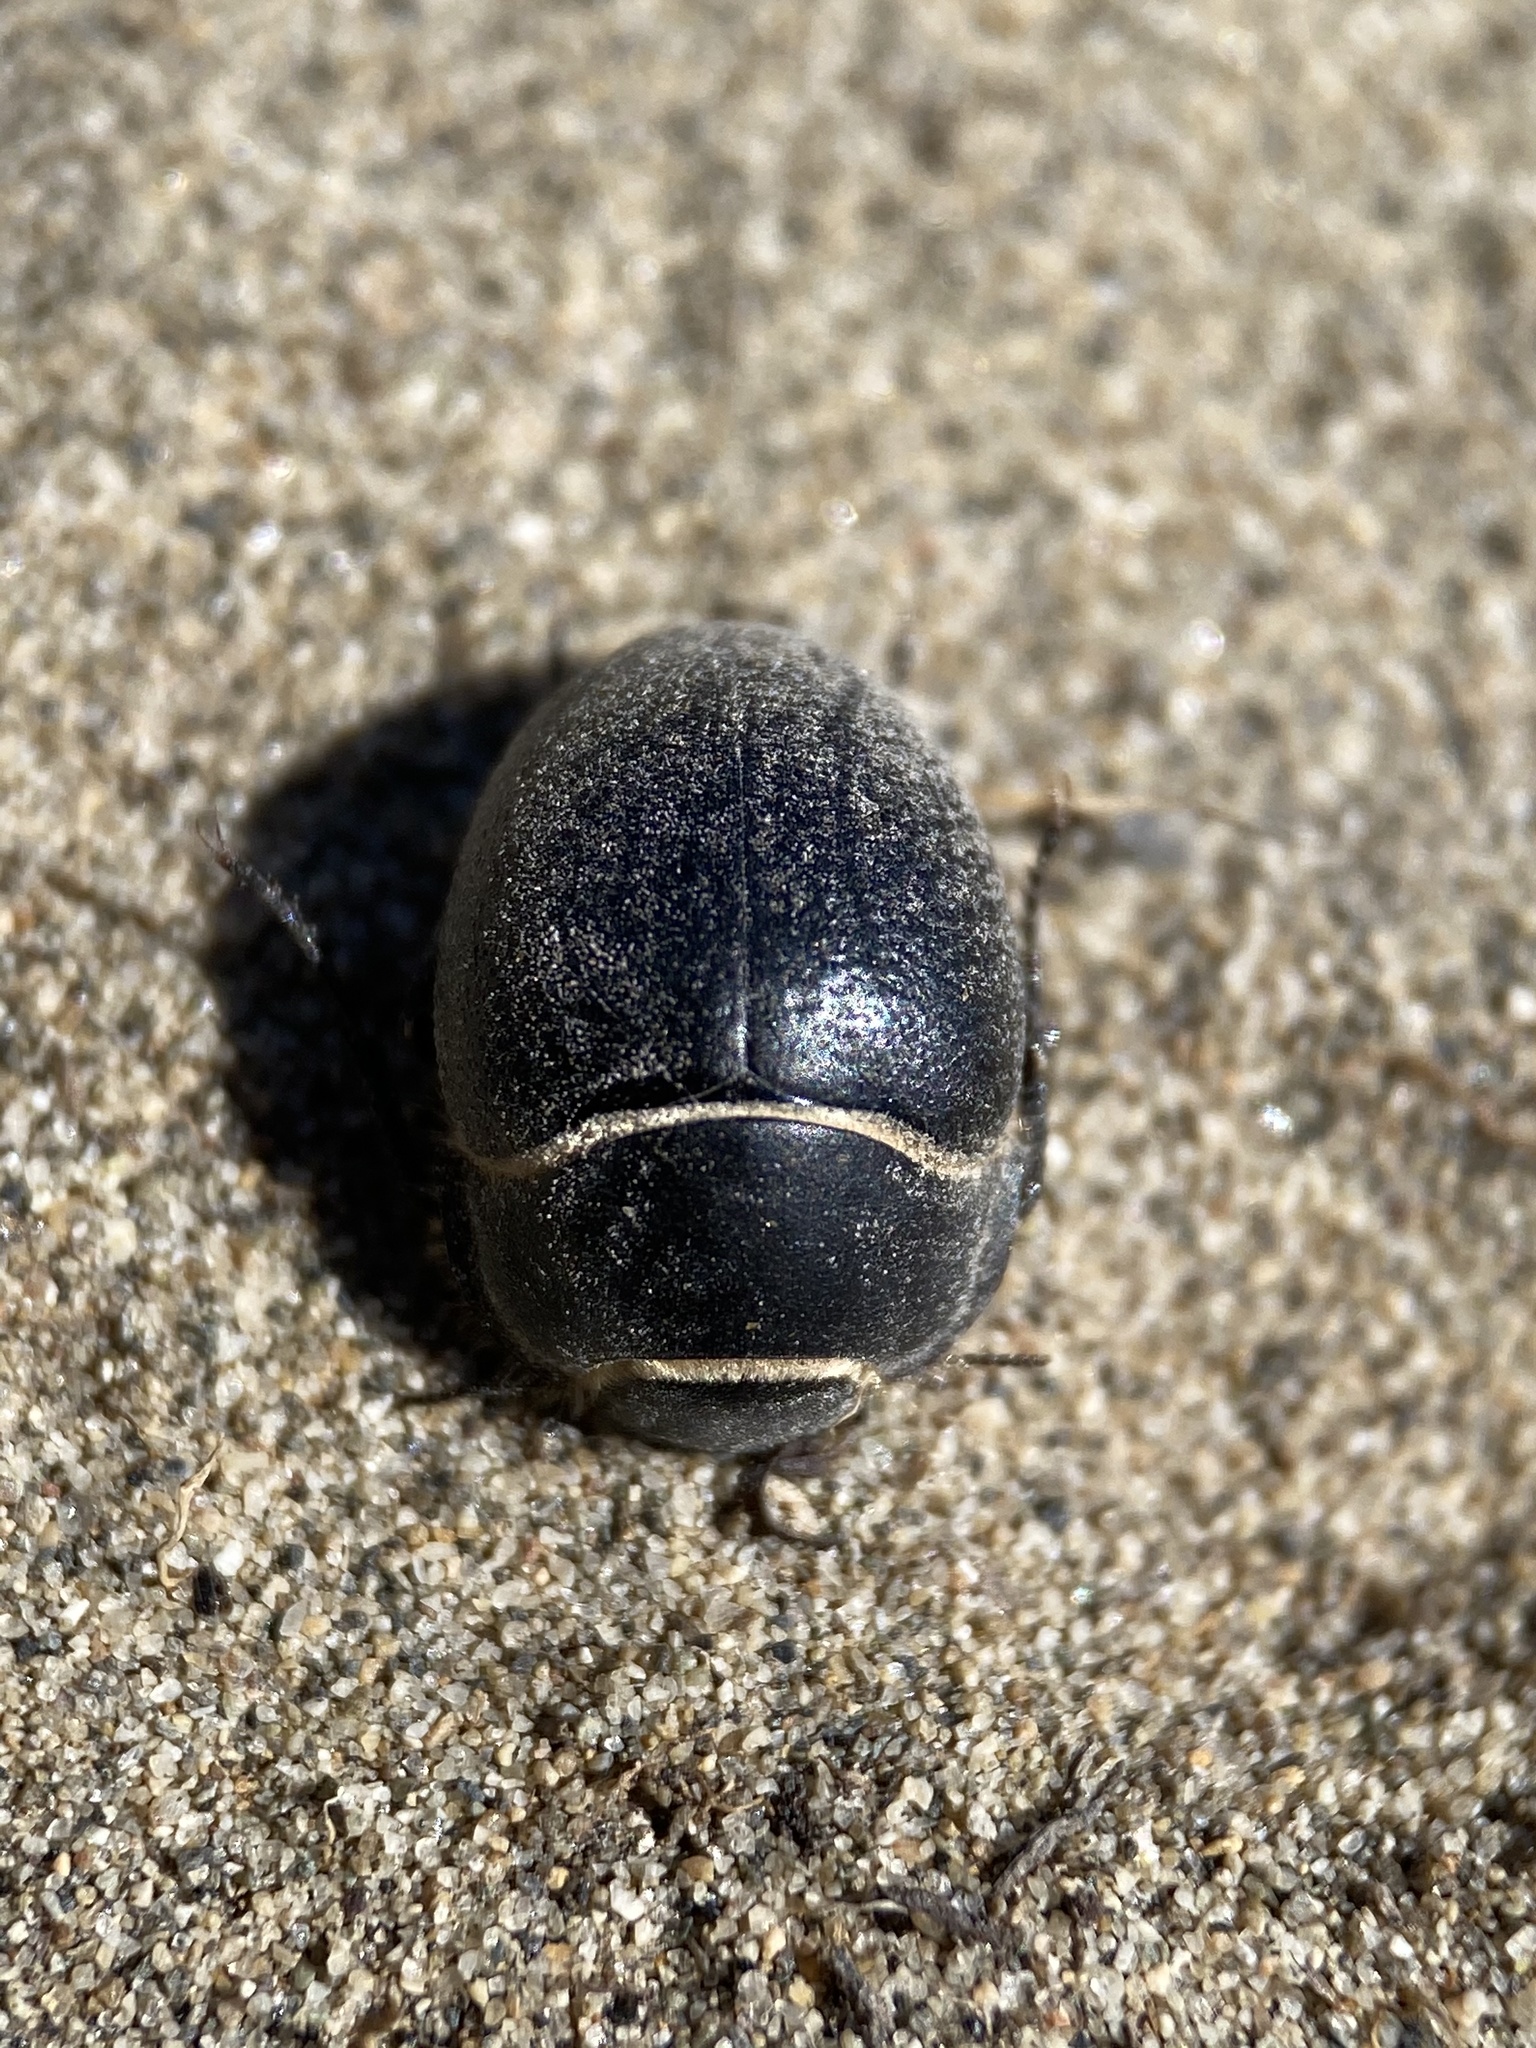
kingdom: Animalia
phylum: Arthropoda
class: Insecta
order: Coleoptera
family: Tenebrionidae
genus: Eusattus
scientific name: Eusattus muricatus
